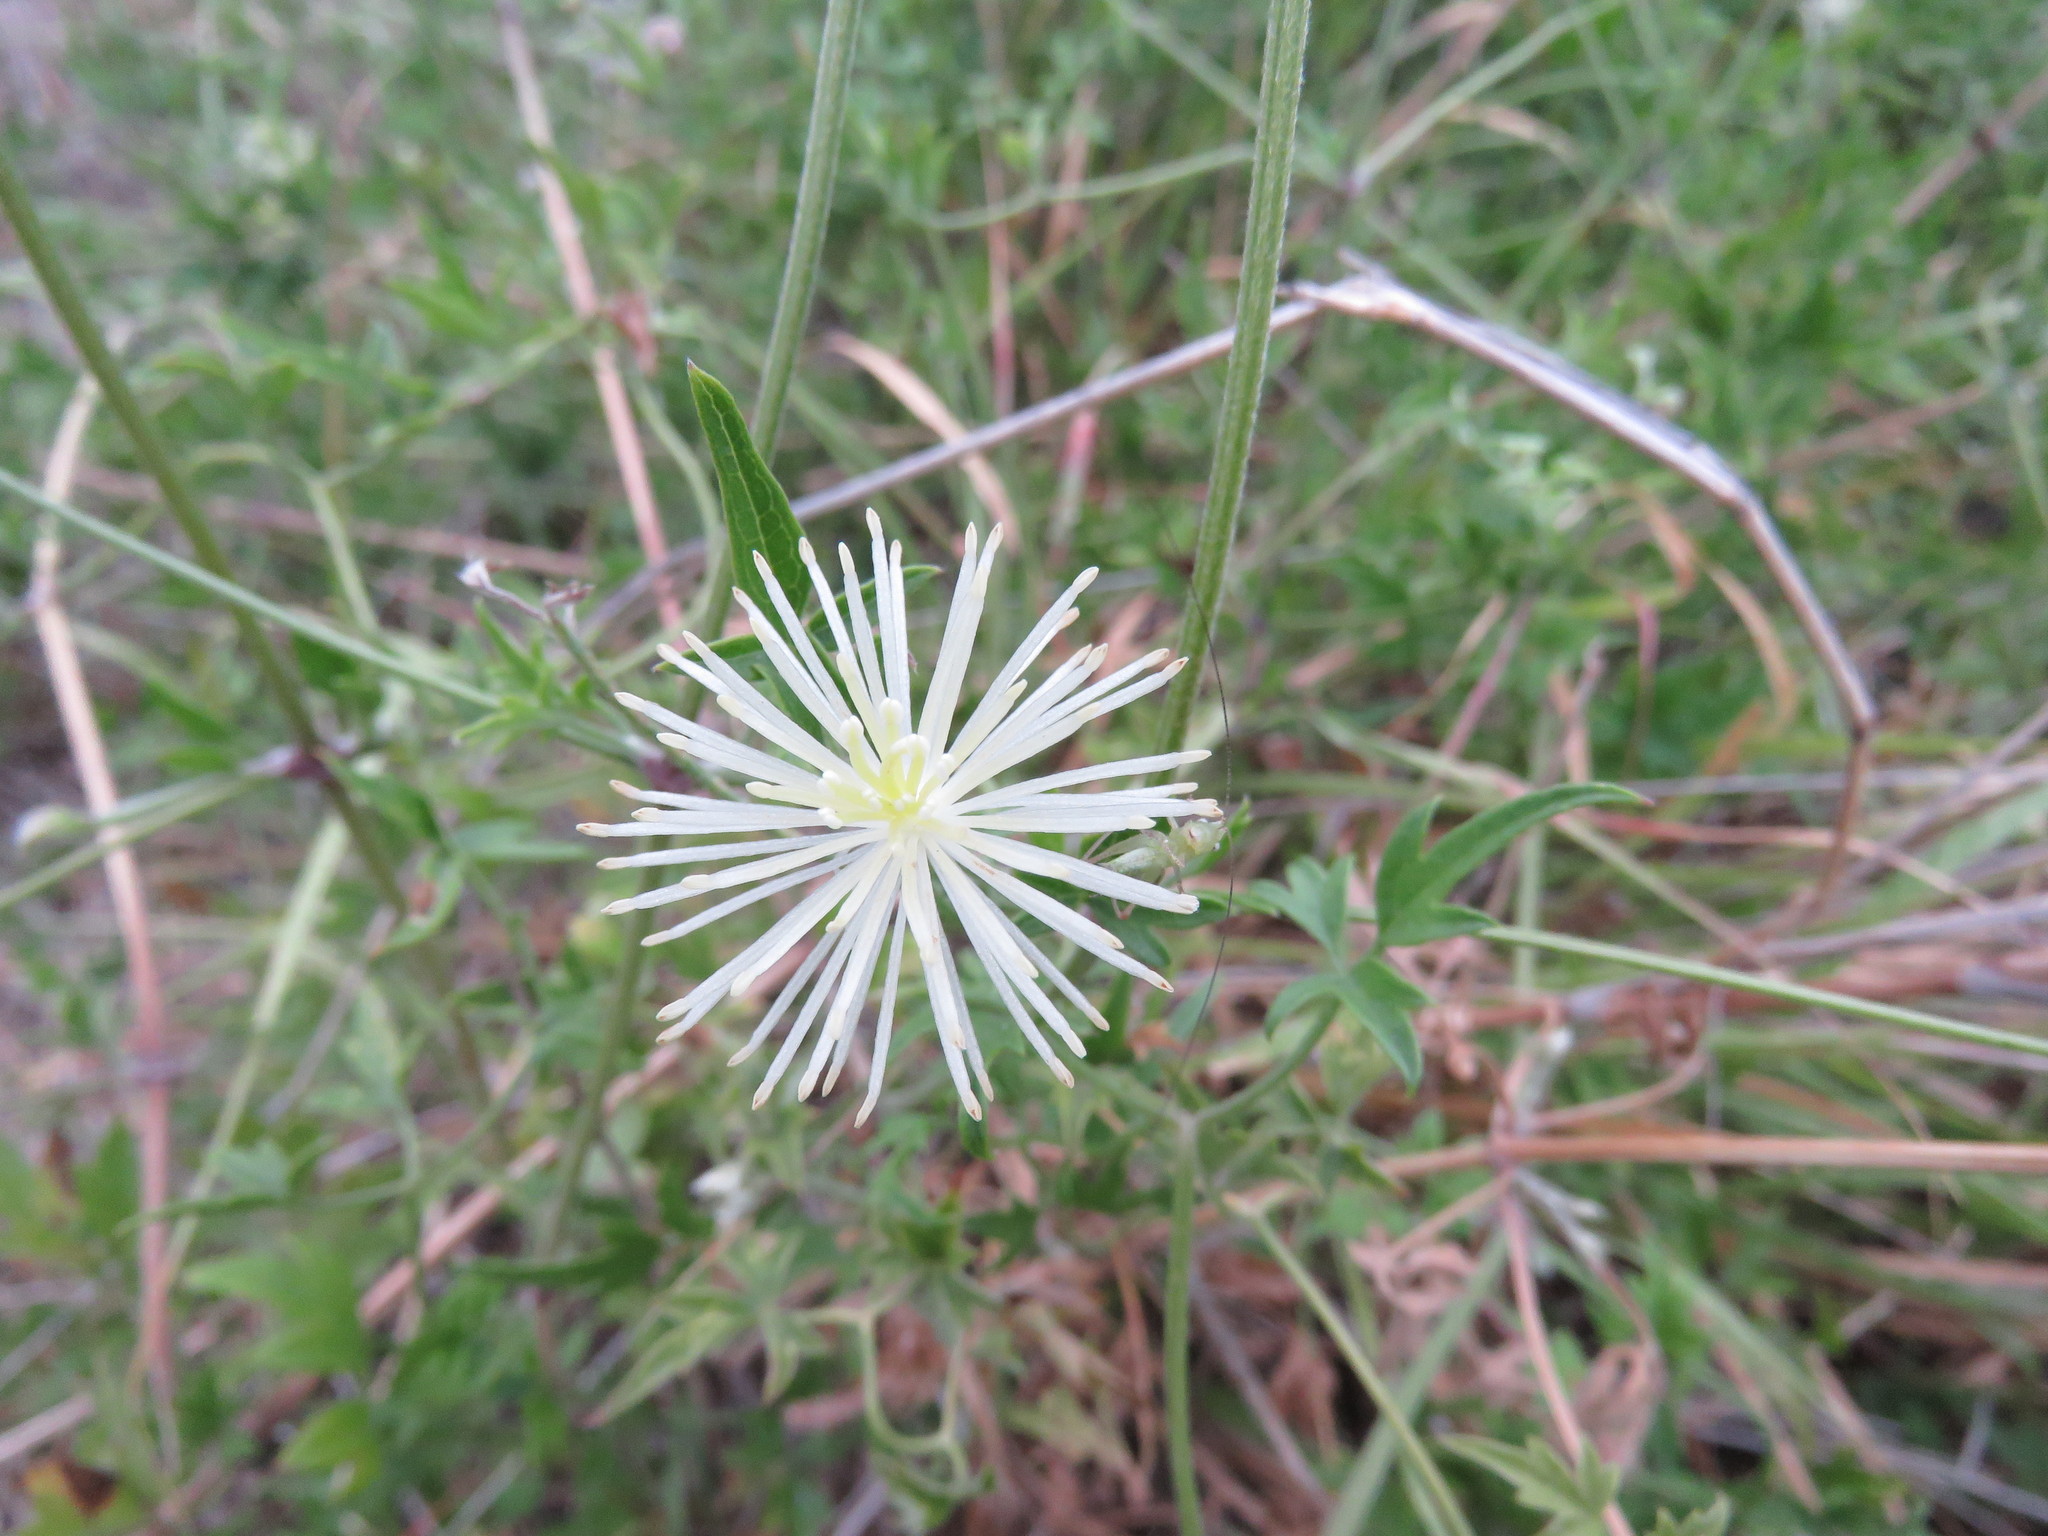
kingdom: Plantae
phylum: Tracheophyta
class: Magnoliopsida
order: Ranunculales
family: Ranunculaceae
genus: Clematis
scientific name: Clematis drummondii
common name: Texas virgin's bower
